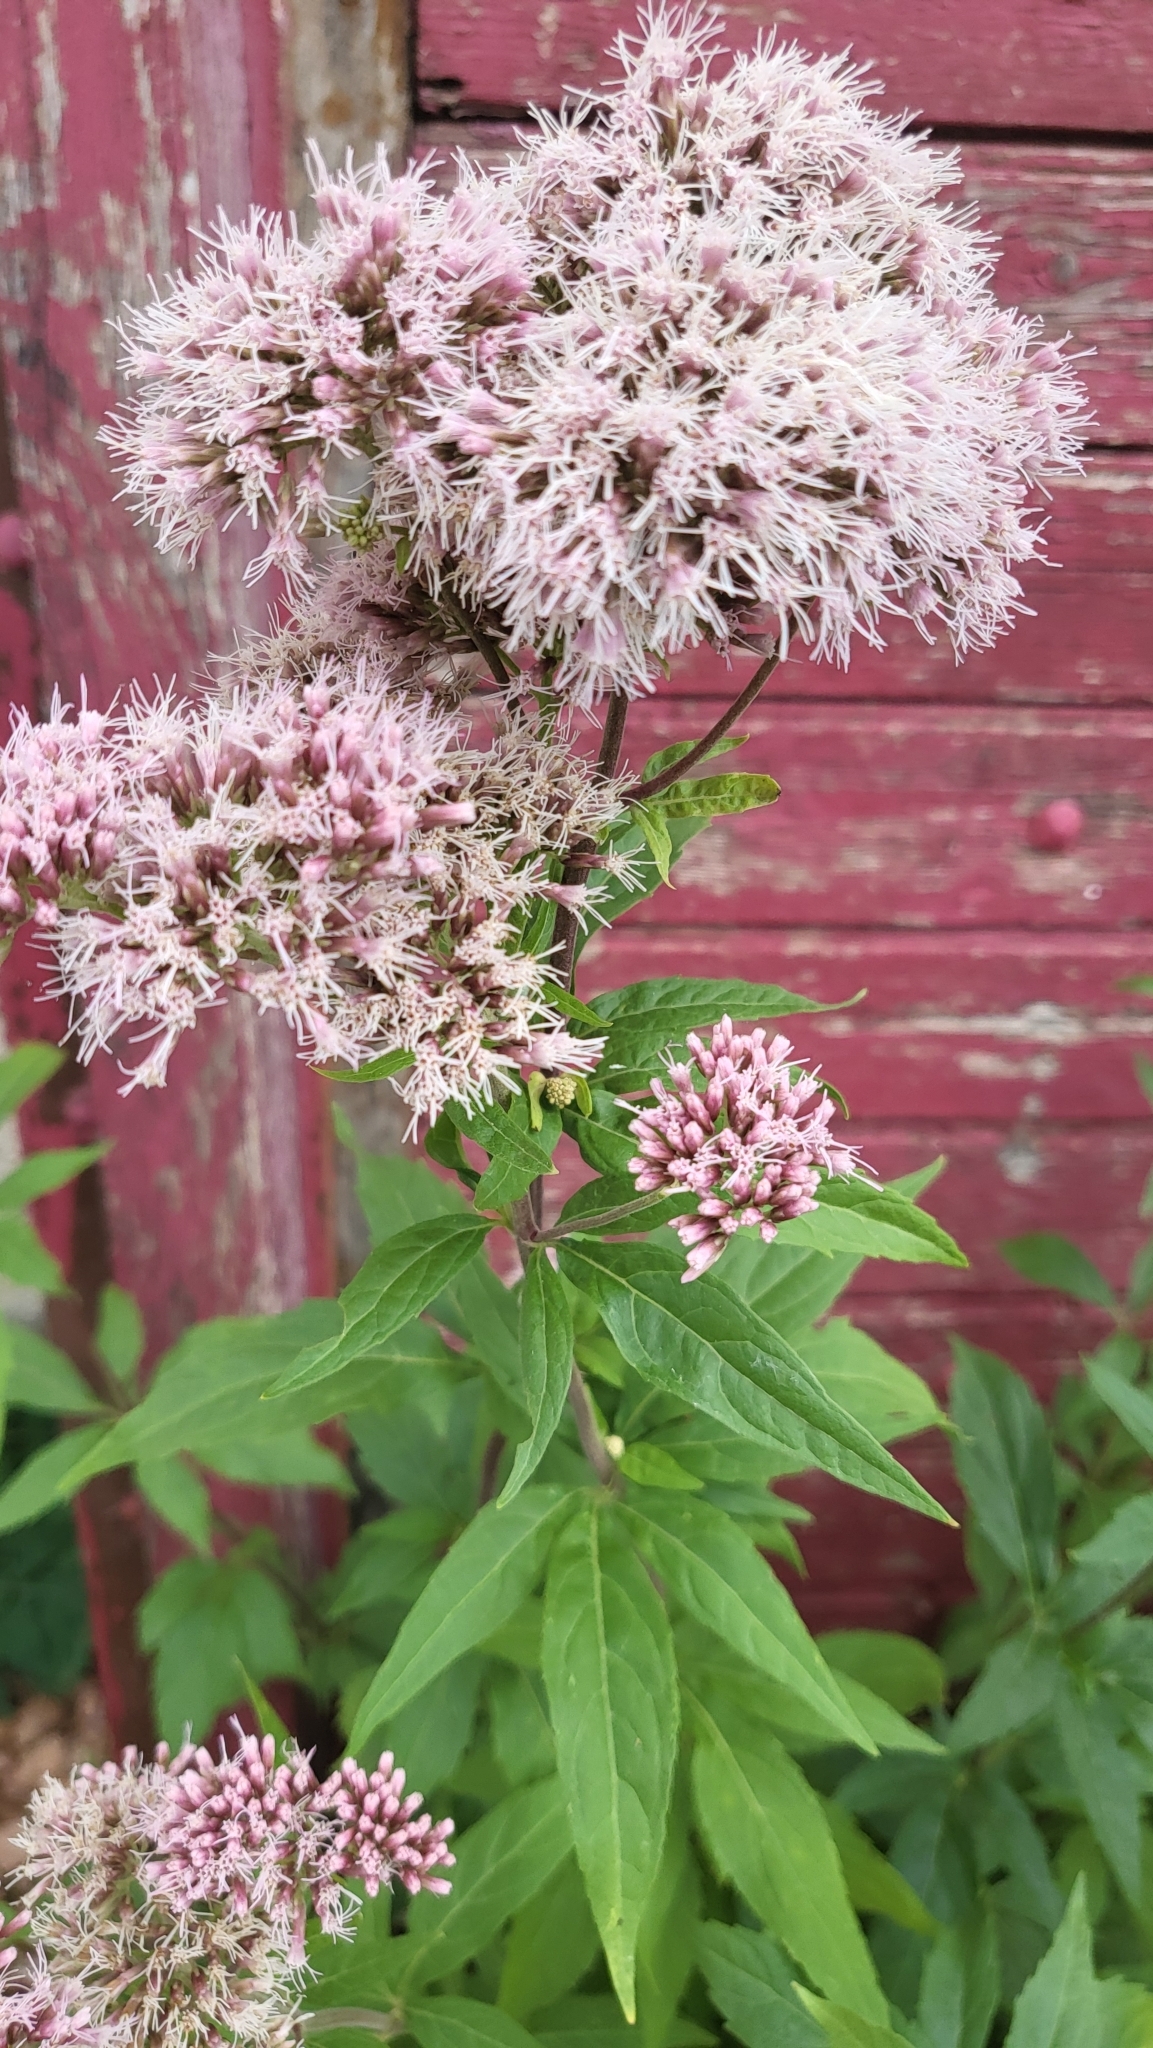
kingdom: Plantae
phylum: Tracheophyta
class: Magnoliopsida
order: Asterales
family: Asteraceae
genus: Eupatorium
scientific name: Eupatorium cannabinum
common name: Hemp-agrimony
